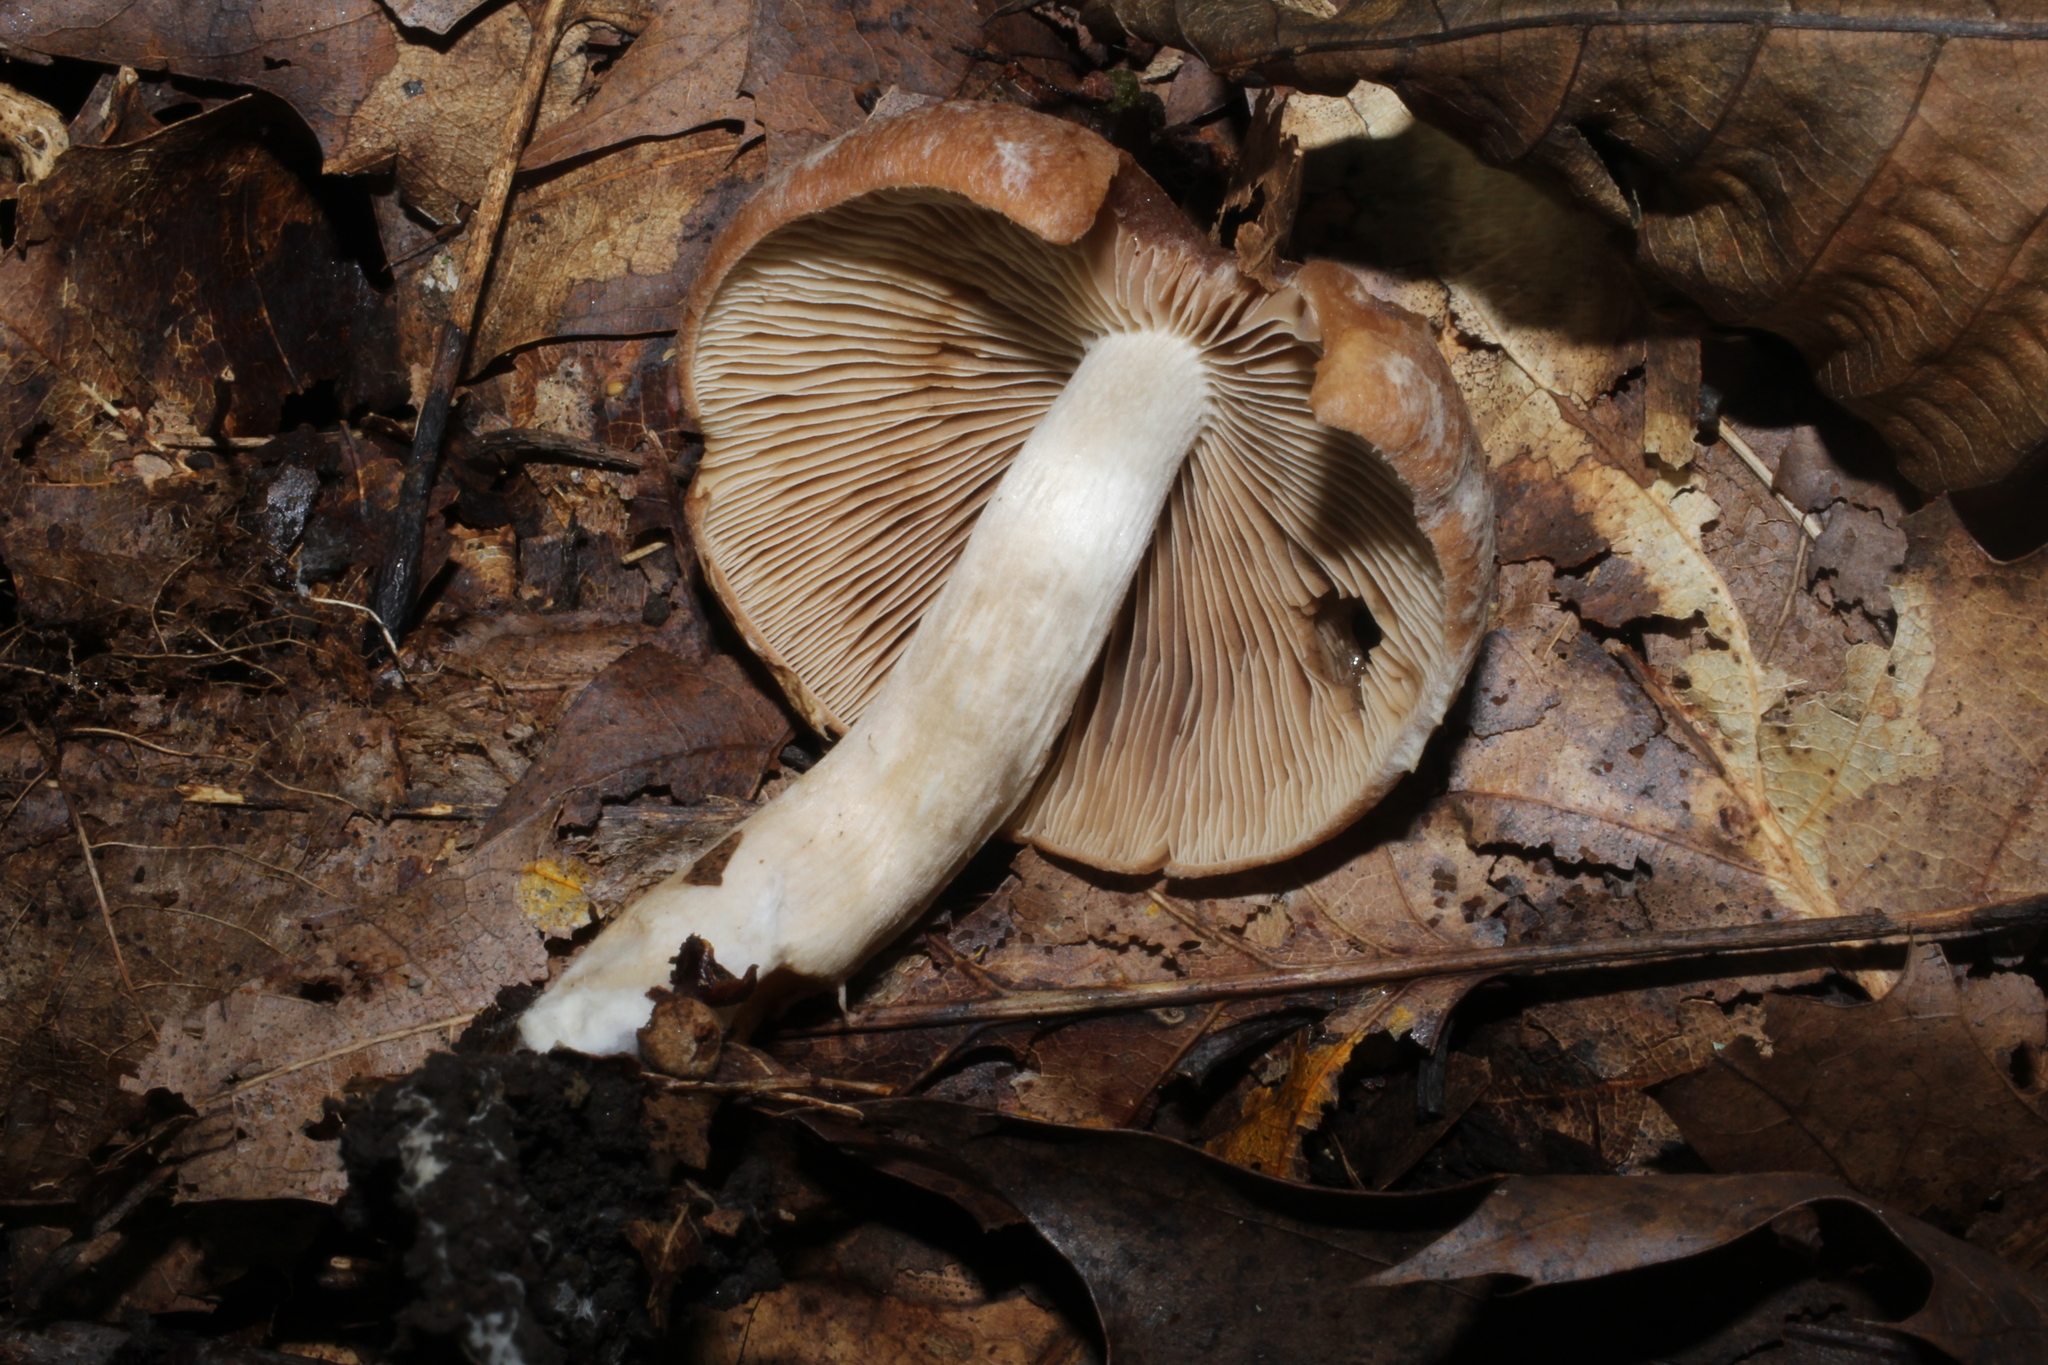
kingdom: Fungi
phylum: Basidiomycota
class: Agaricomycetes
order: Agaricales
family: Psathyrellaceae
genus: Typhrasa
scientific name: Typhrasa gossypina
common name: Wrinkled psathyrella
